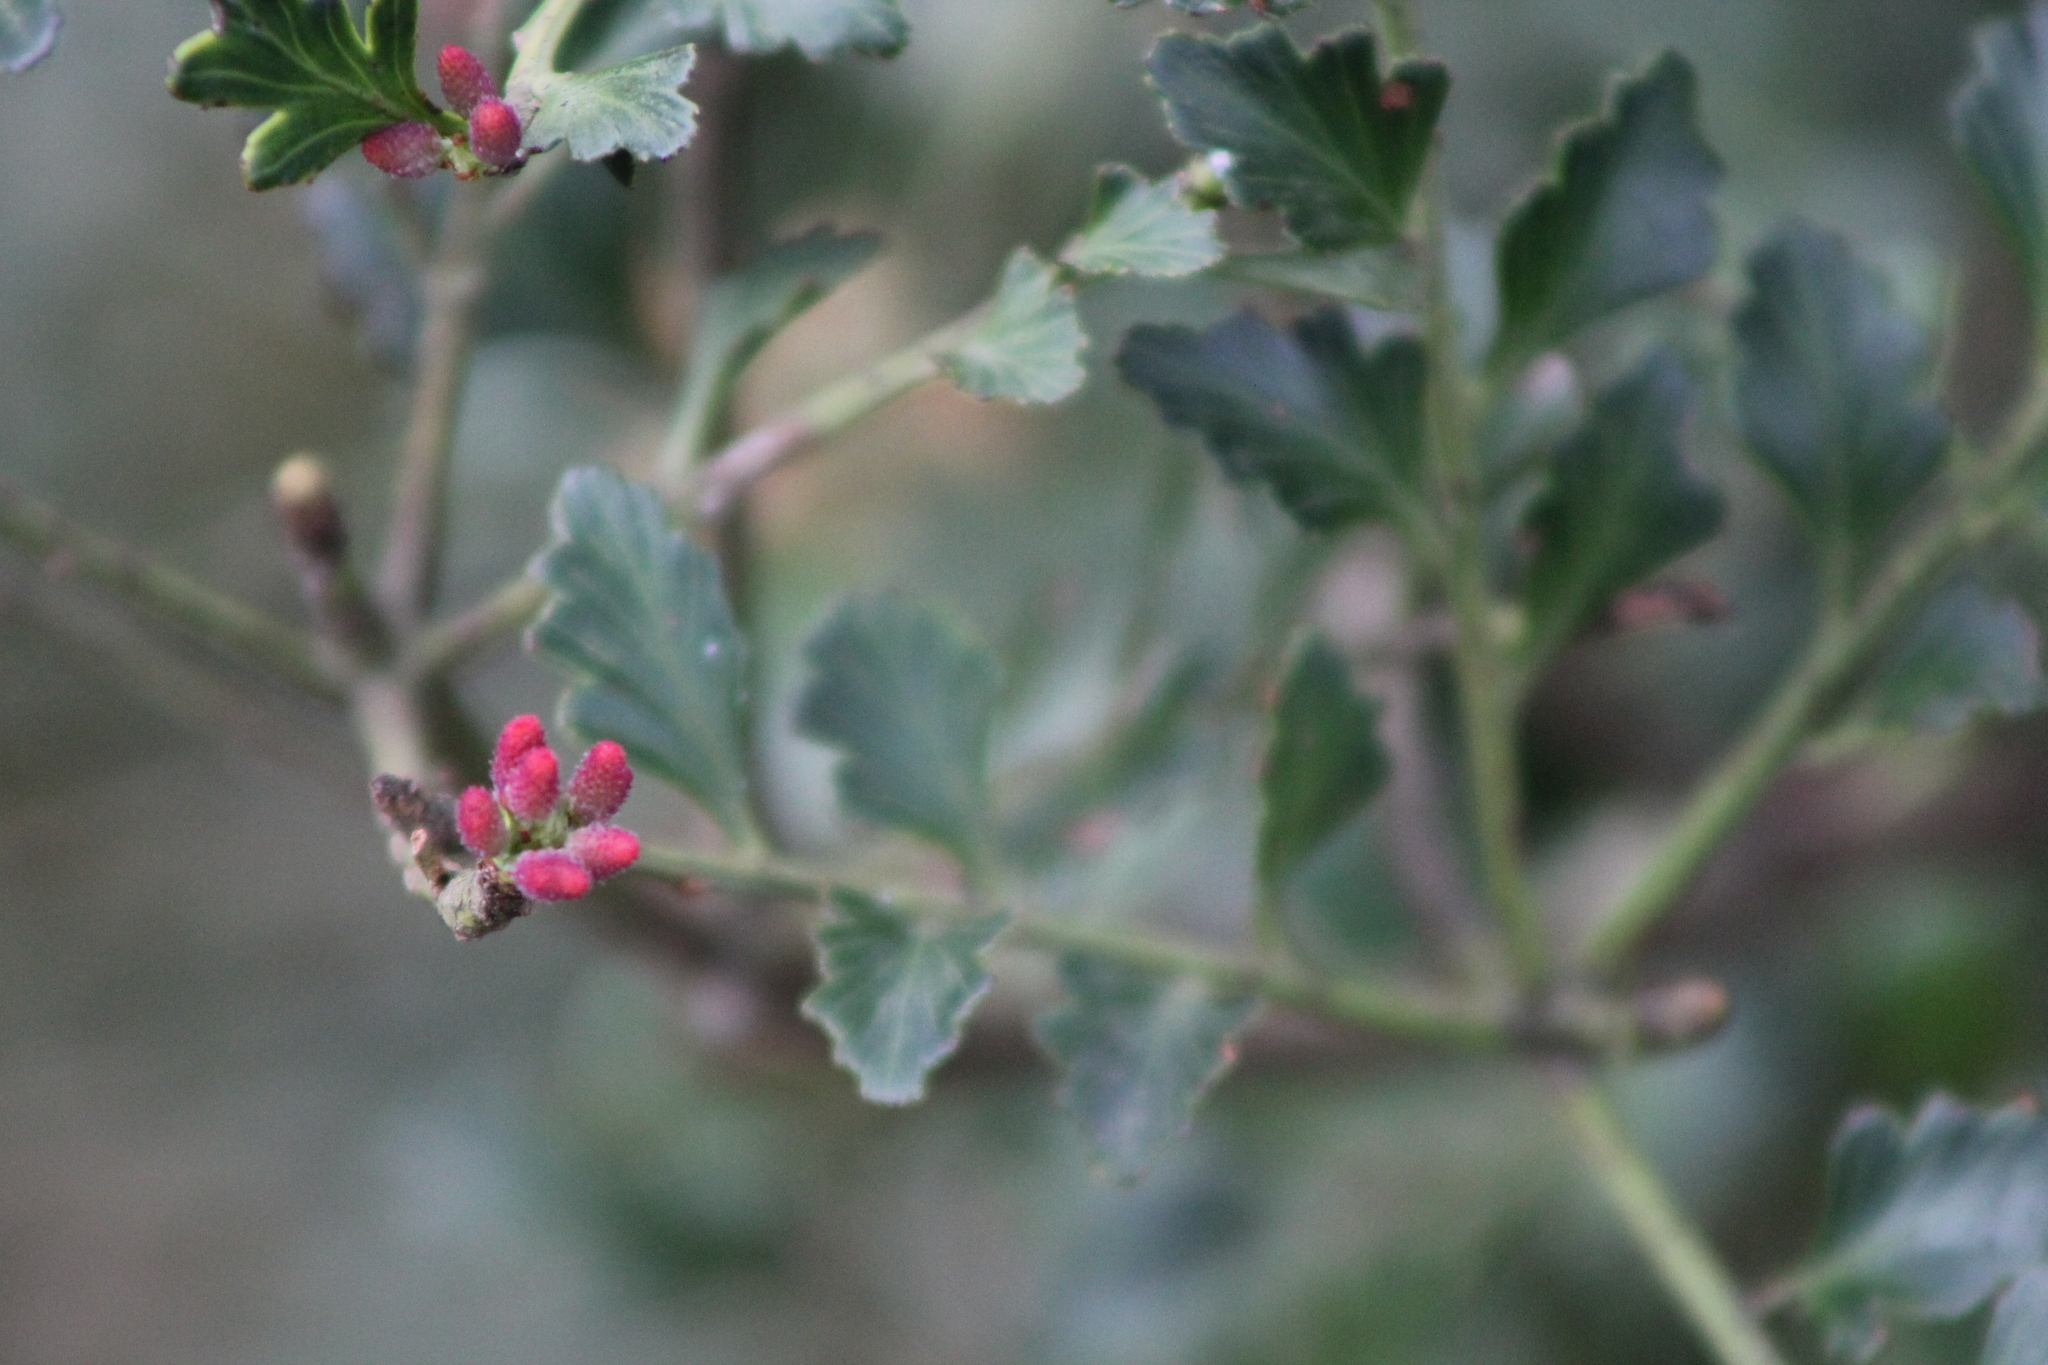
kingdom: Plantae
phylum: Tracheophyta
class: Pinopsida
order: Pinales
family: Phyllocladaceae
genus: Phyllocladus
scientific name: Phyllocladus trichomanoides
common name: Celery pine
